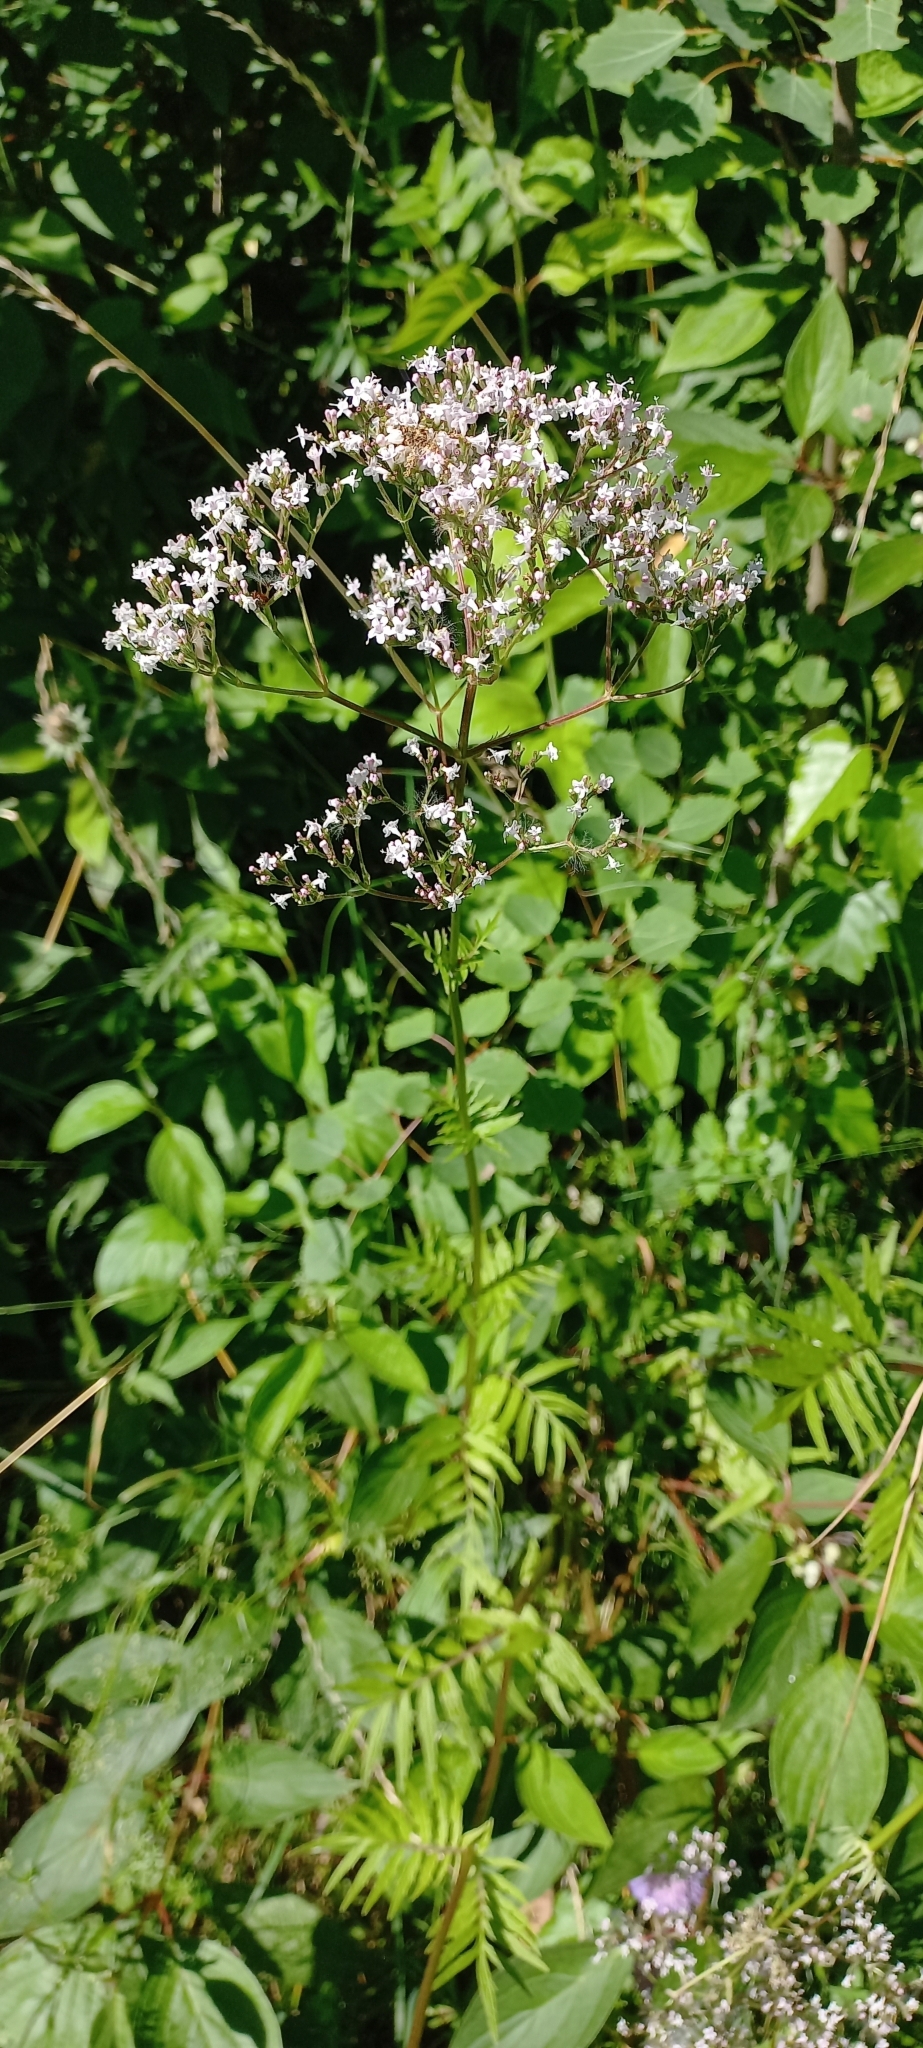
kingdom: Plantae
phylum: Tracheophyta
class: Magnoliopsida
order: Dipsacales
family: Caprifoliaceae
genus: Valeriana
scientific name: Valeriana officinalis
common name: Common valerian
